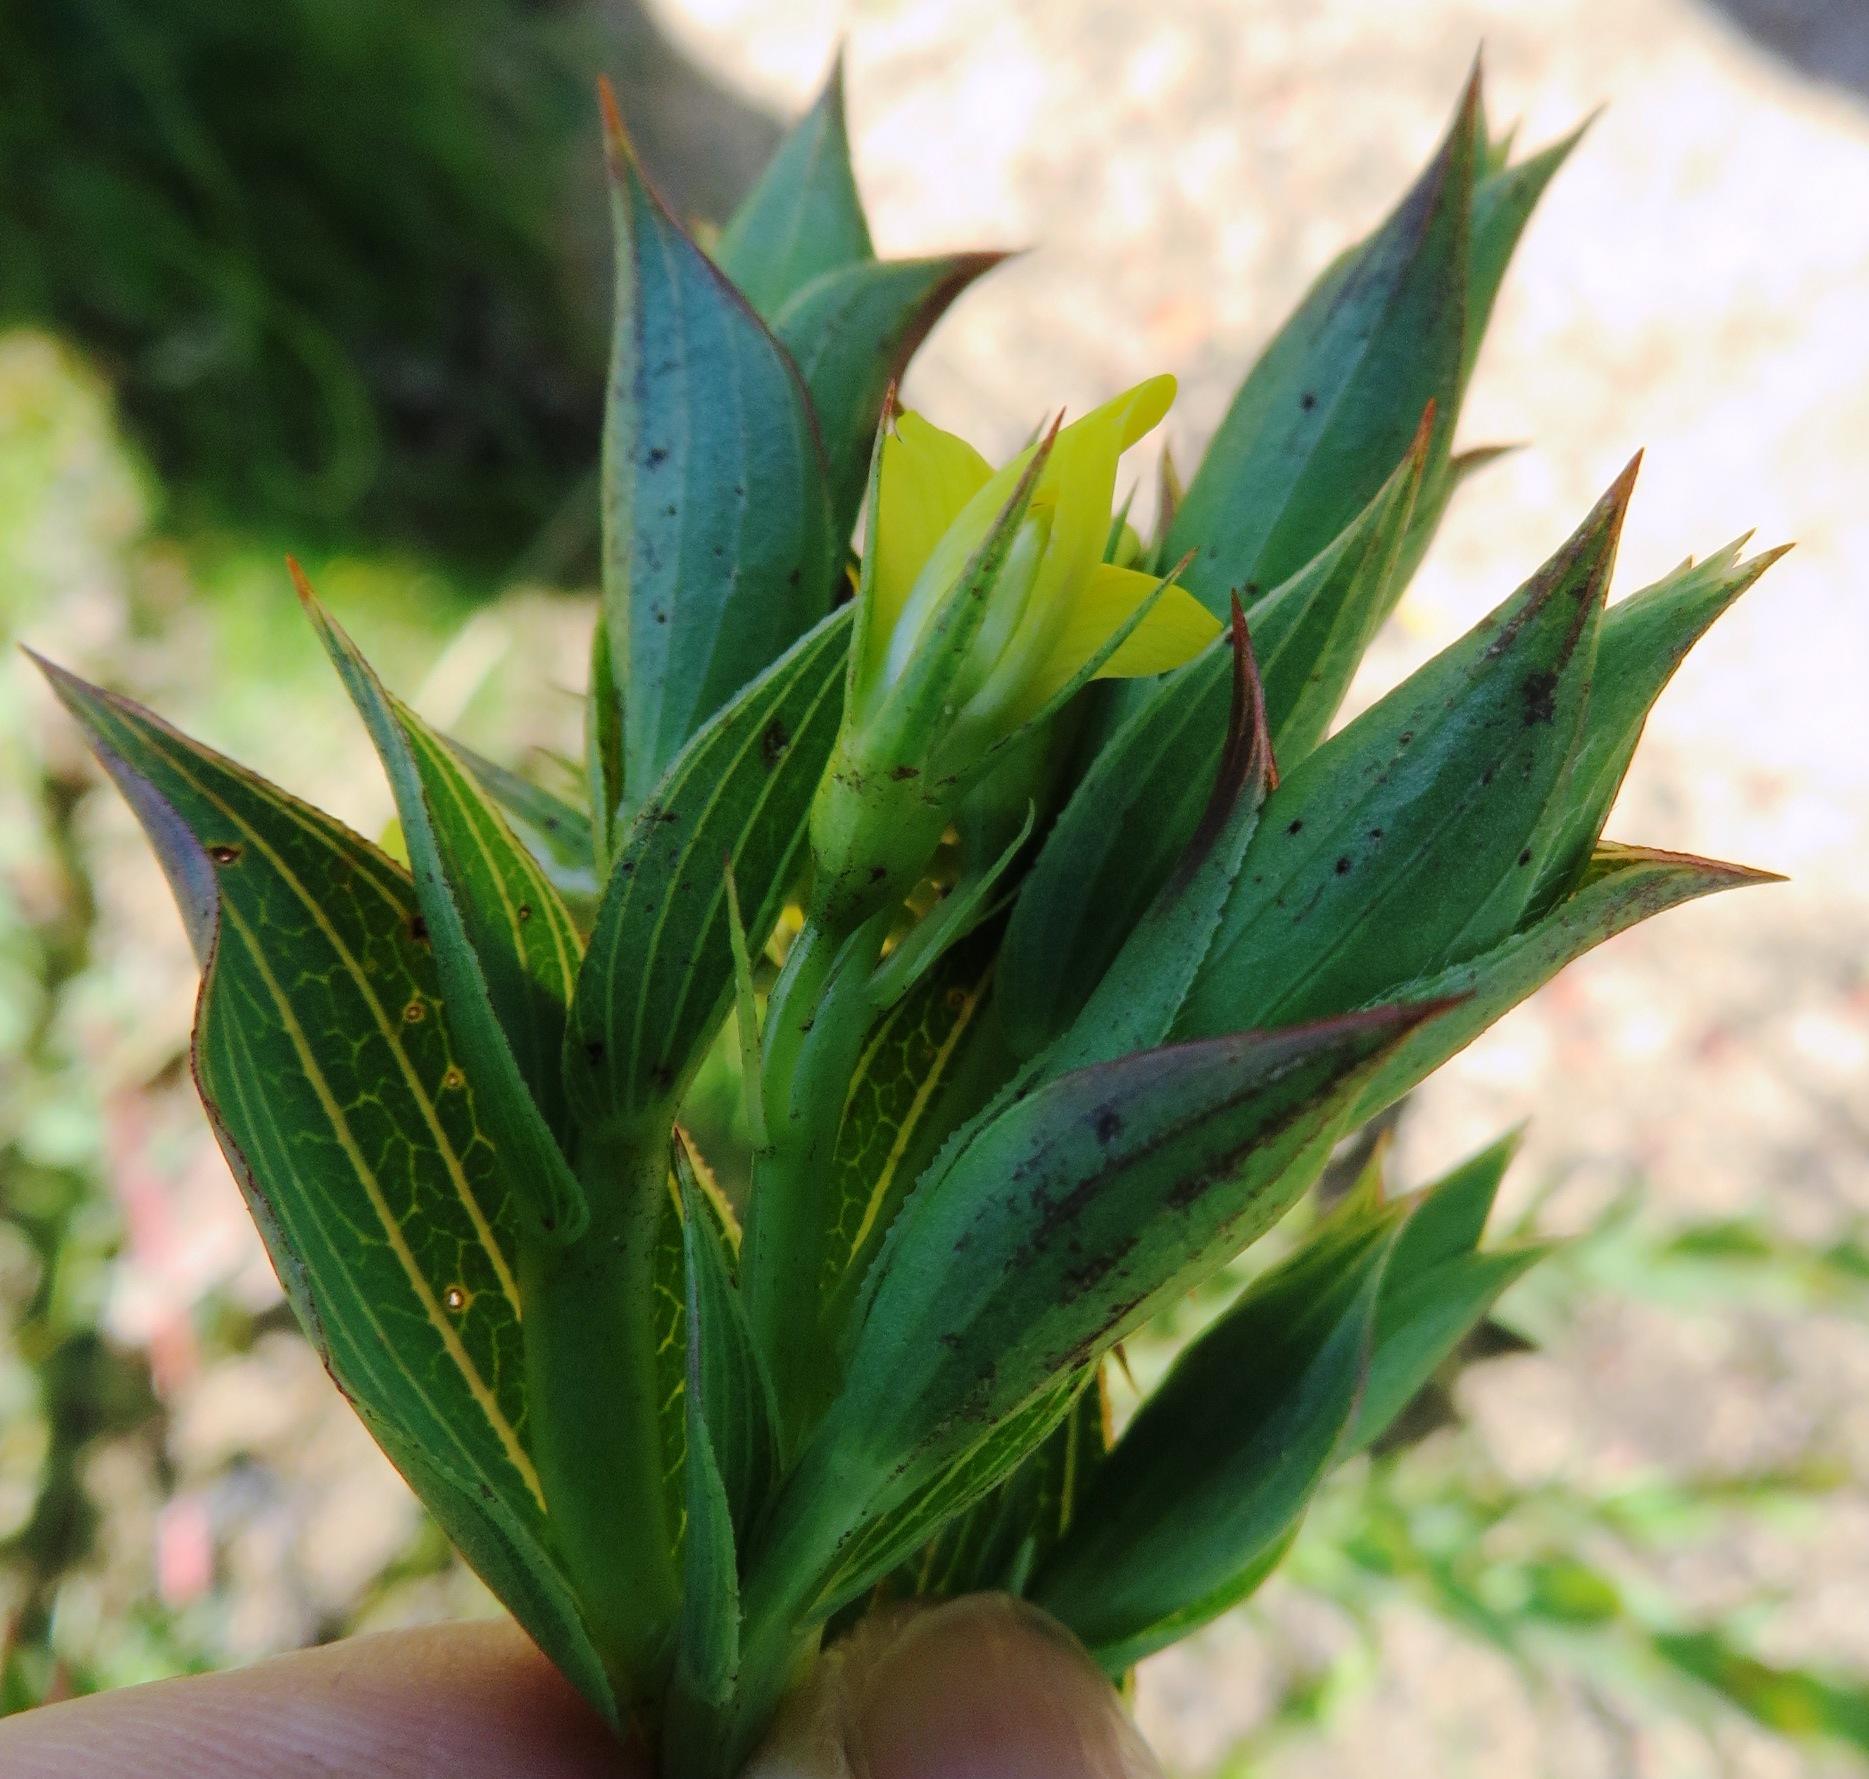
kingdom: Plantae
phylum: Tracheophyta
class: Magnoliopsida
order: Fabales
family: Fabaceae
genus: Aspalathus
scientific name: Aspalathus crenata
